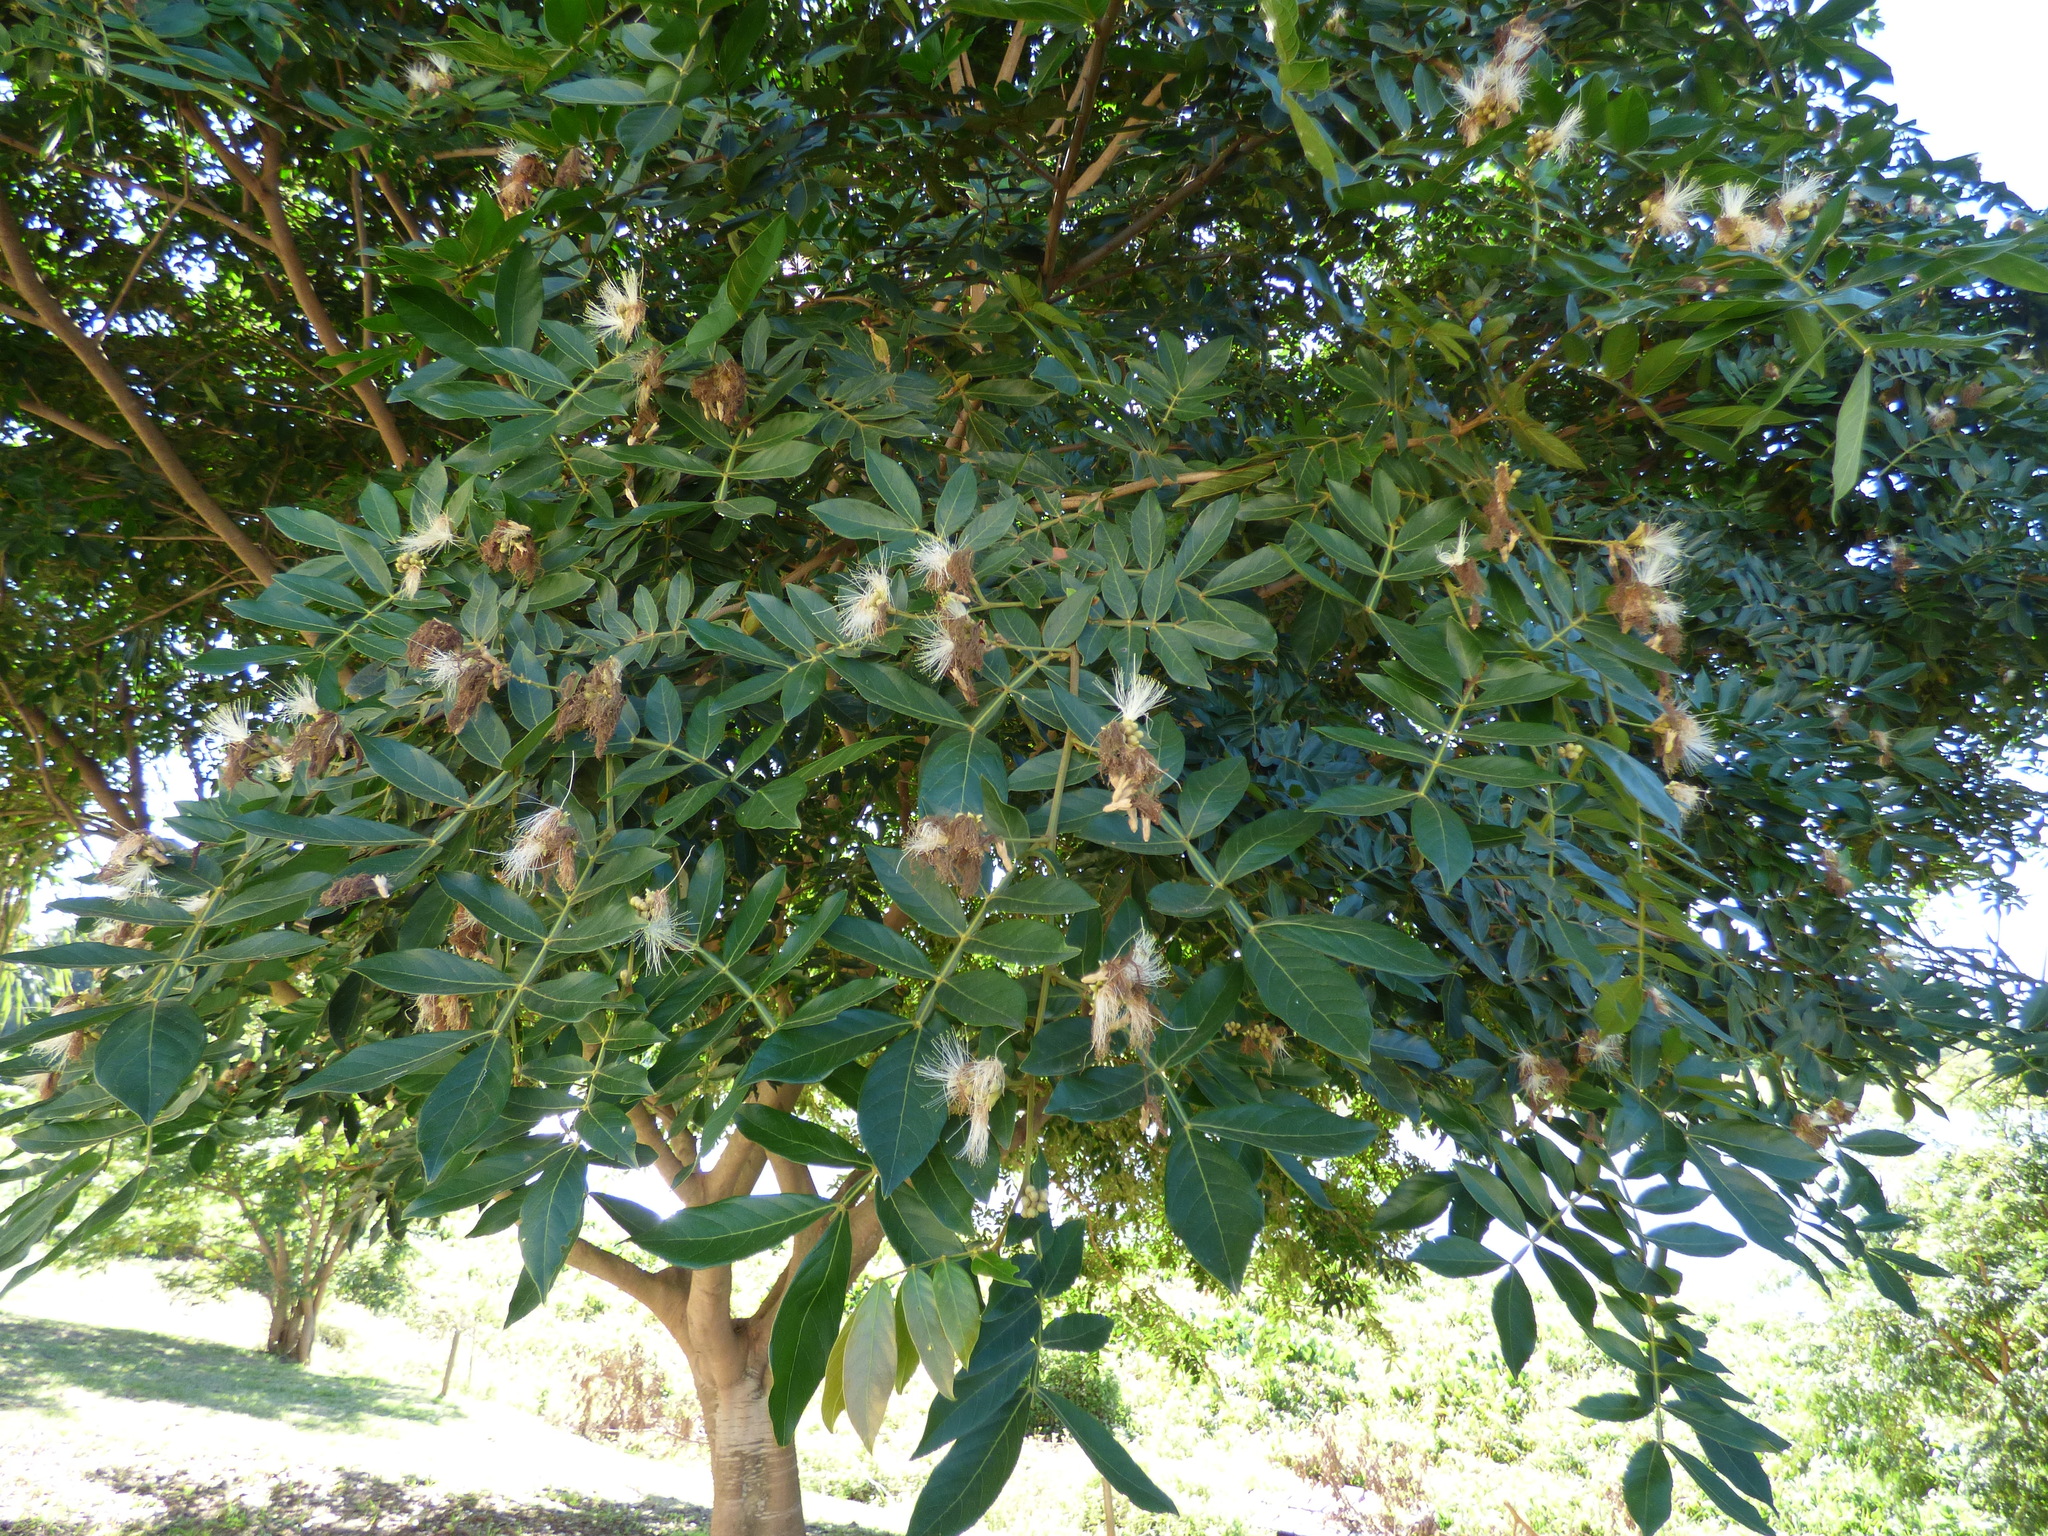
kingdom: Plantae
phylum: Tracheophyta
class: Magnoliopsida
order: Fabales
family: Fabaceae
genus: Inga
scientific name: Inga uraguensis
